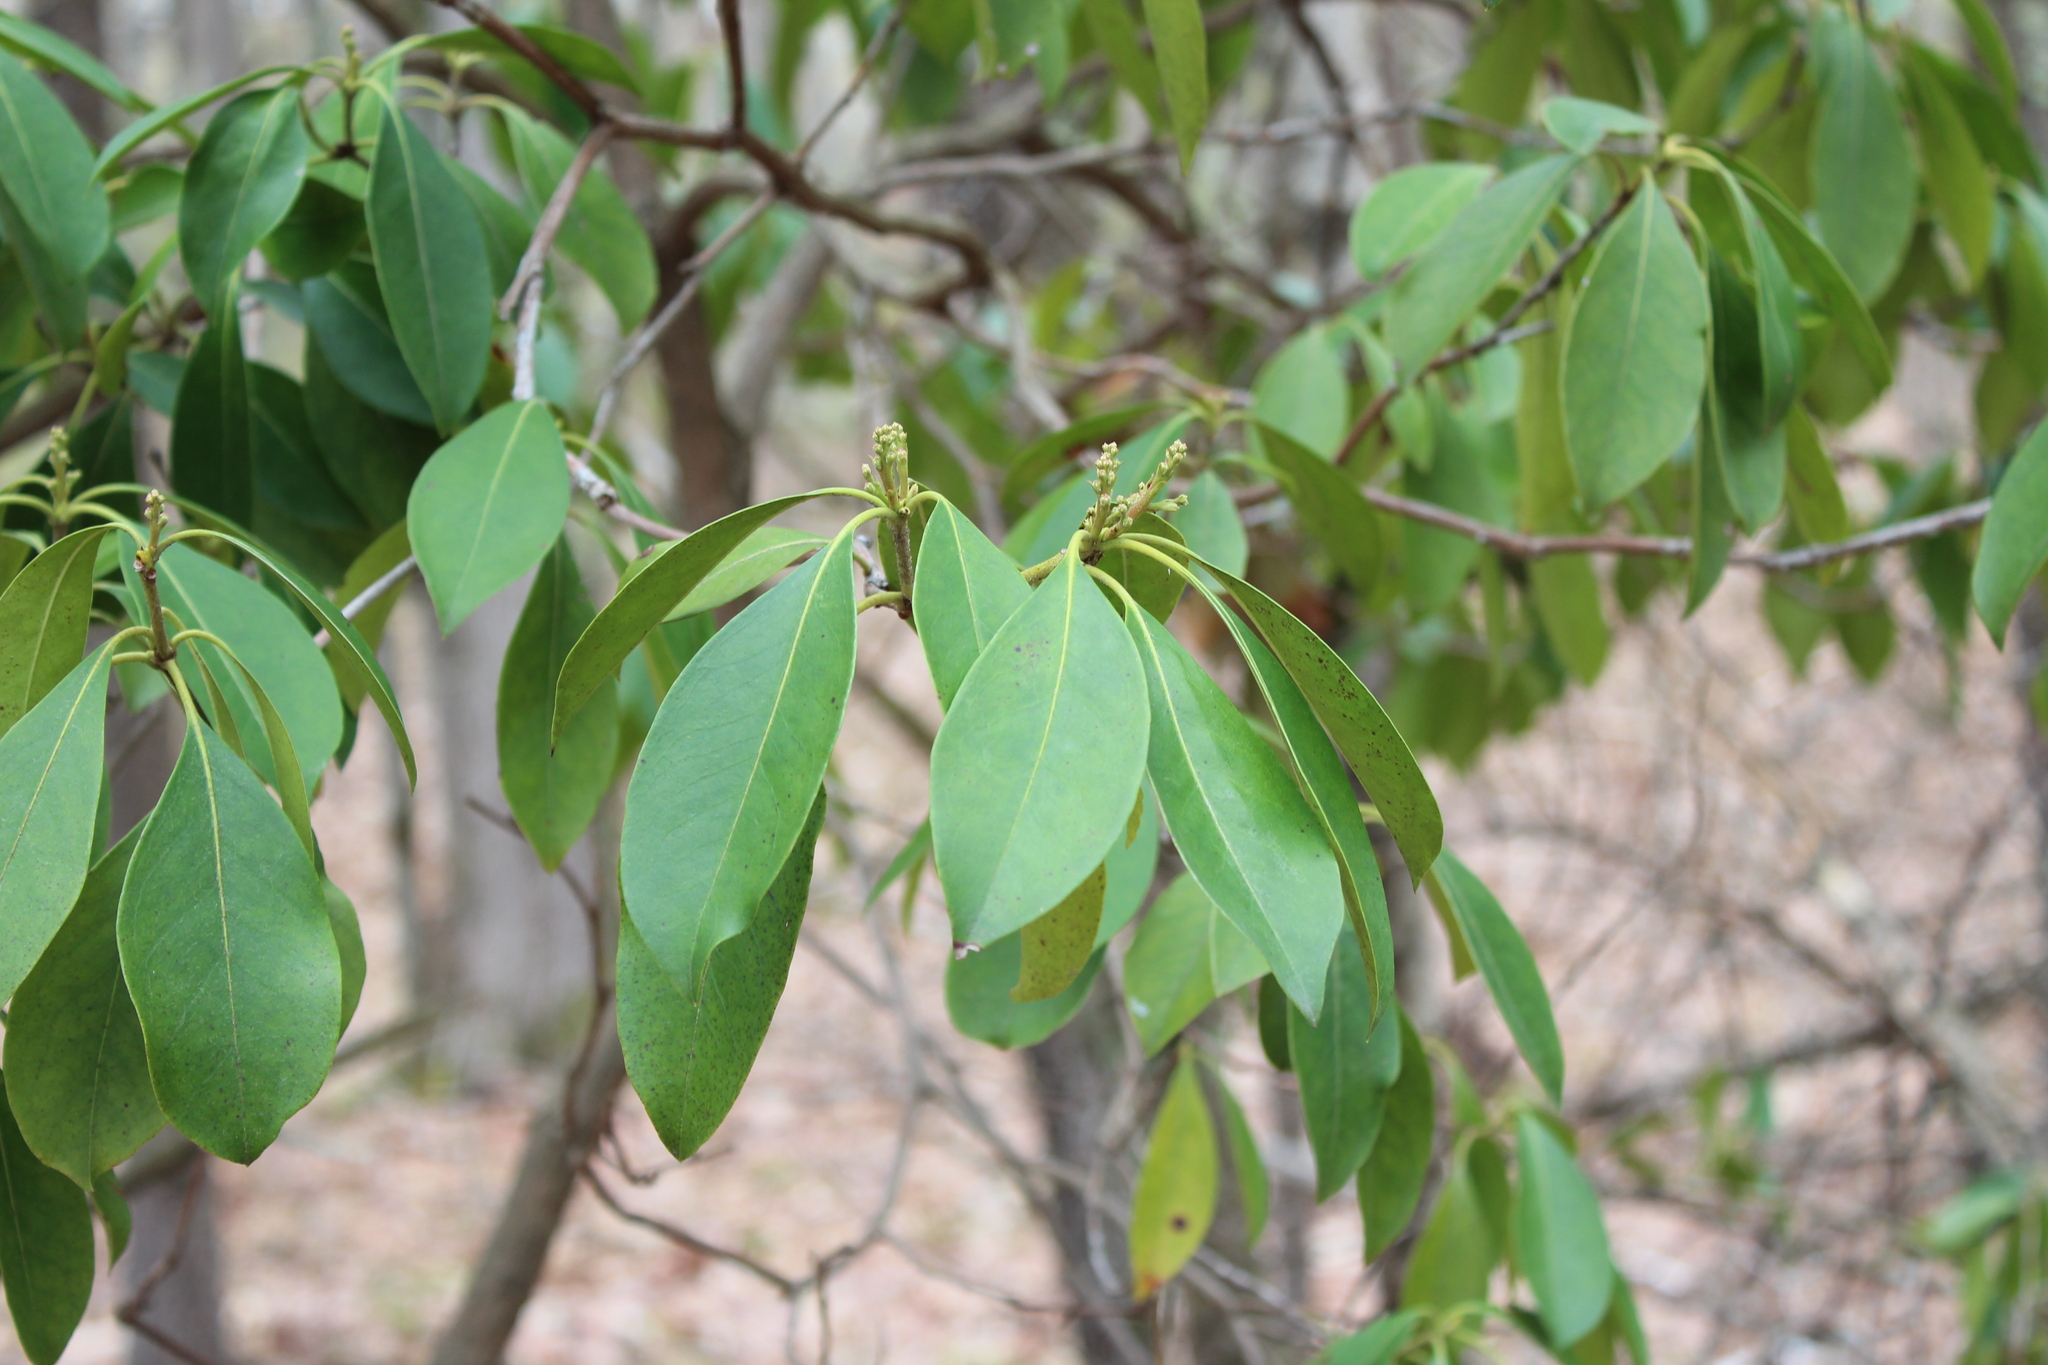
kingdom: Plantae
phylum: Tracheophyta
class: Magnoliopsida
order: Ericales
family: Ericaceae
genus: Kalmia
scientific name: Kalmia latifolia
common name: Mountain-laurel
